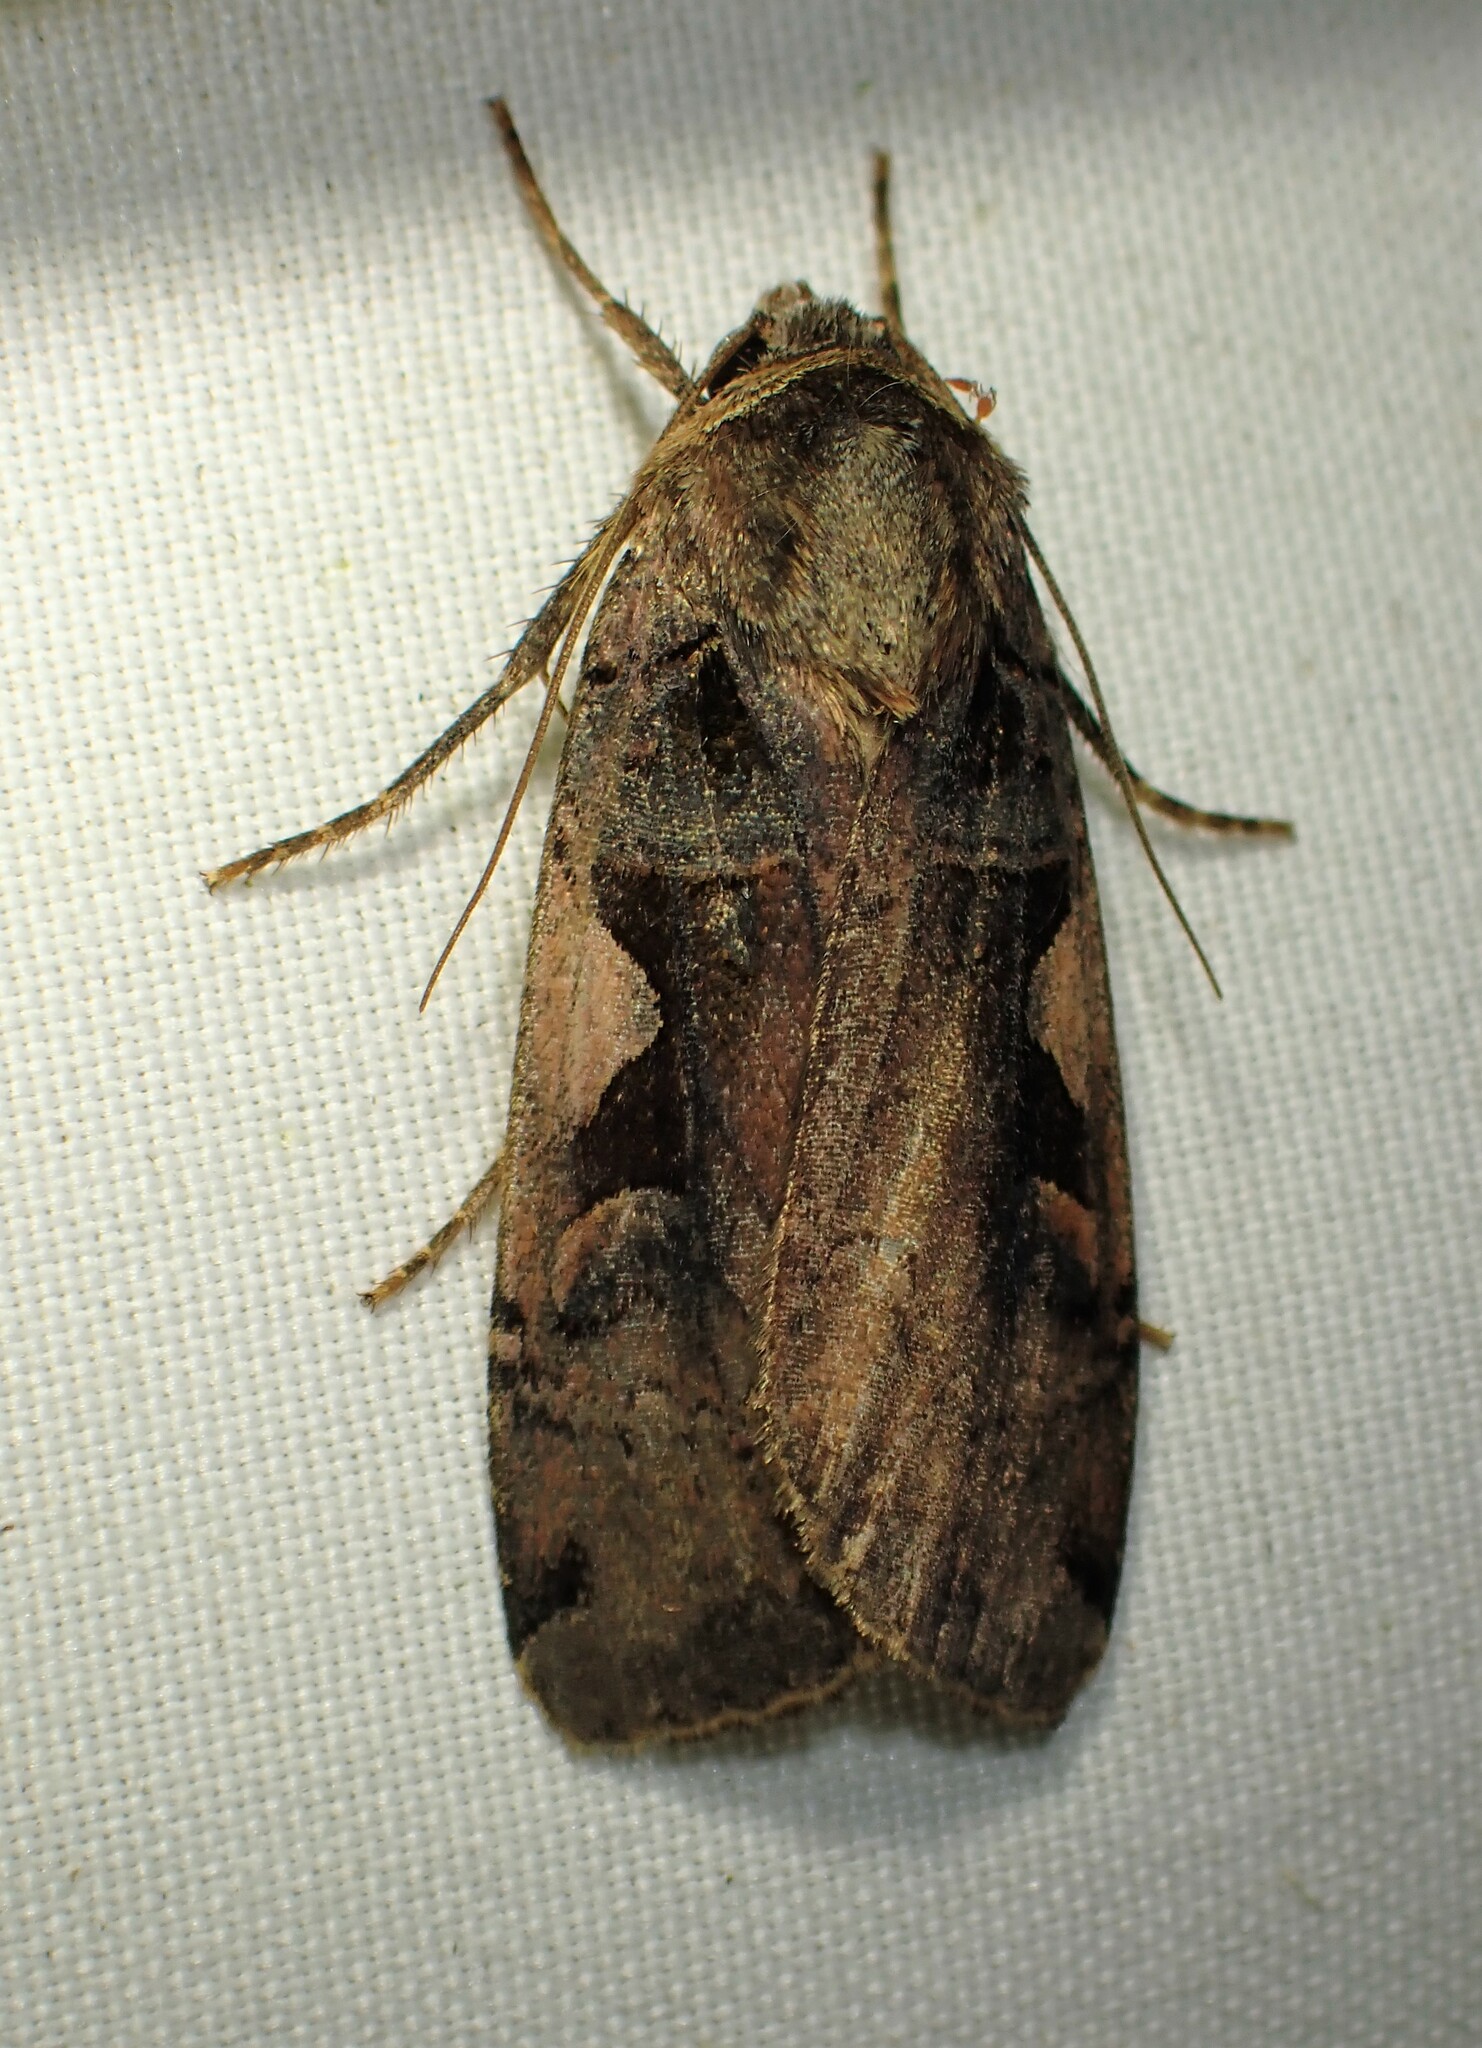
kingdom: Animalia
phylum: Arthropoda
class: Insecta
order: Lepidoptera
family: Noctuidae
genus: Xestia
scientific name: Xestia
